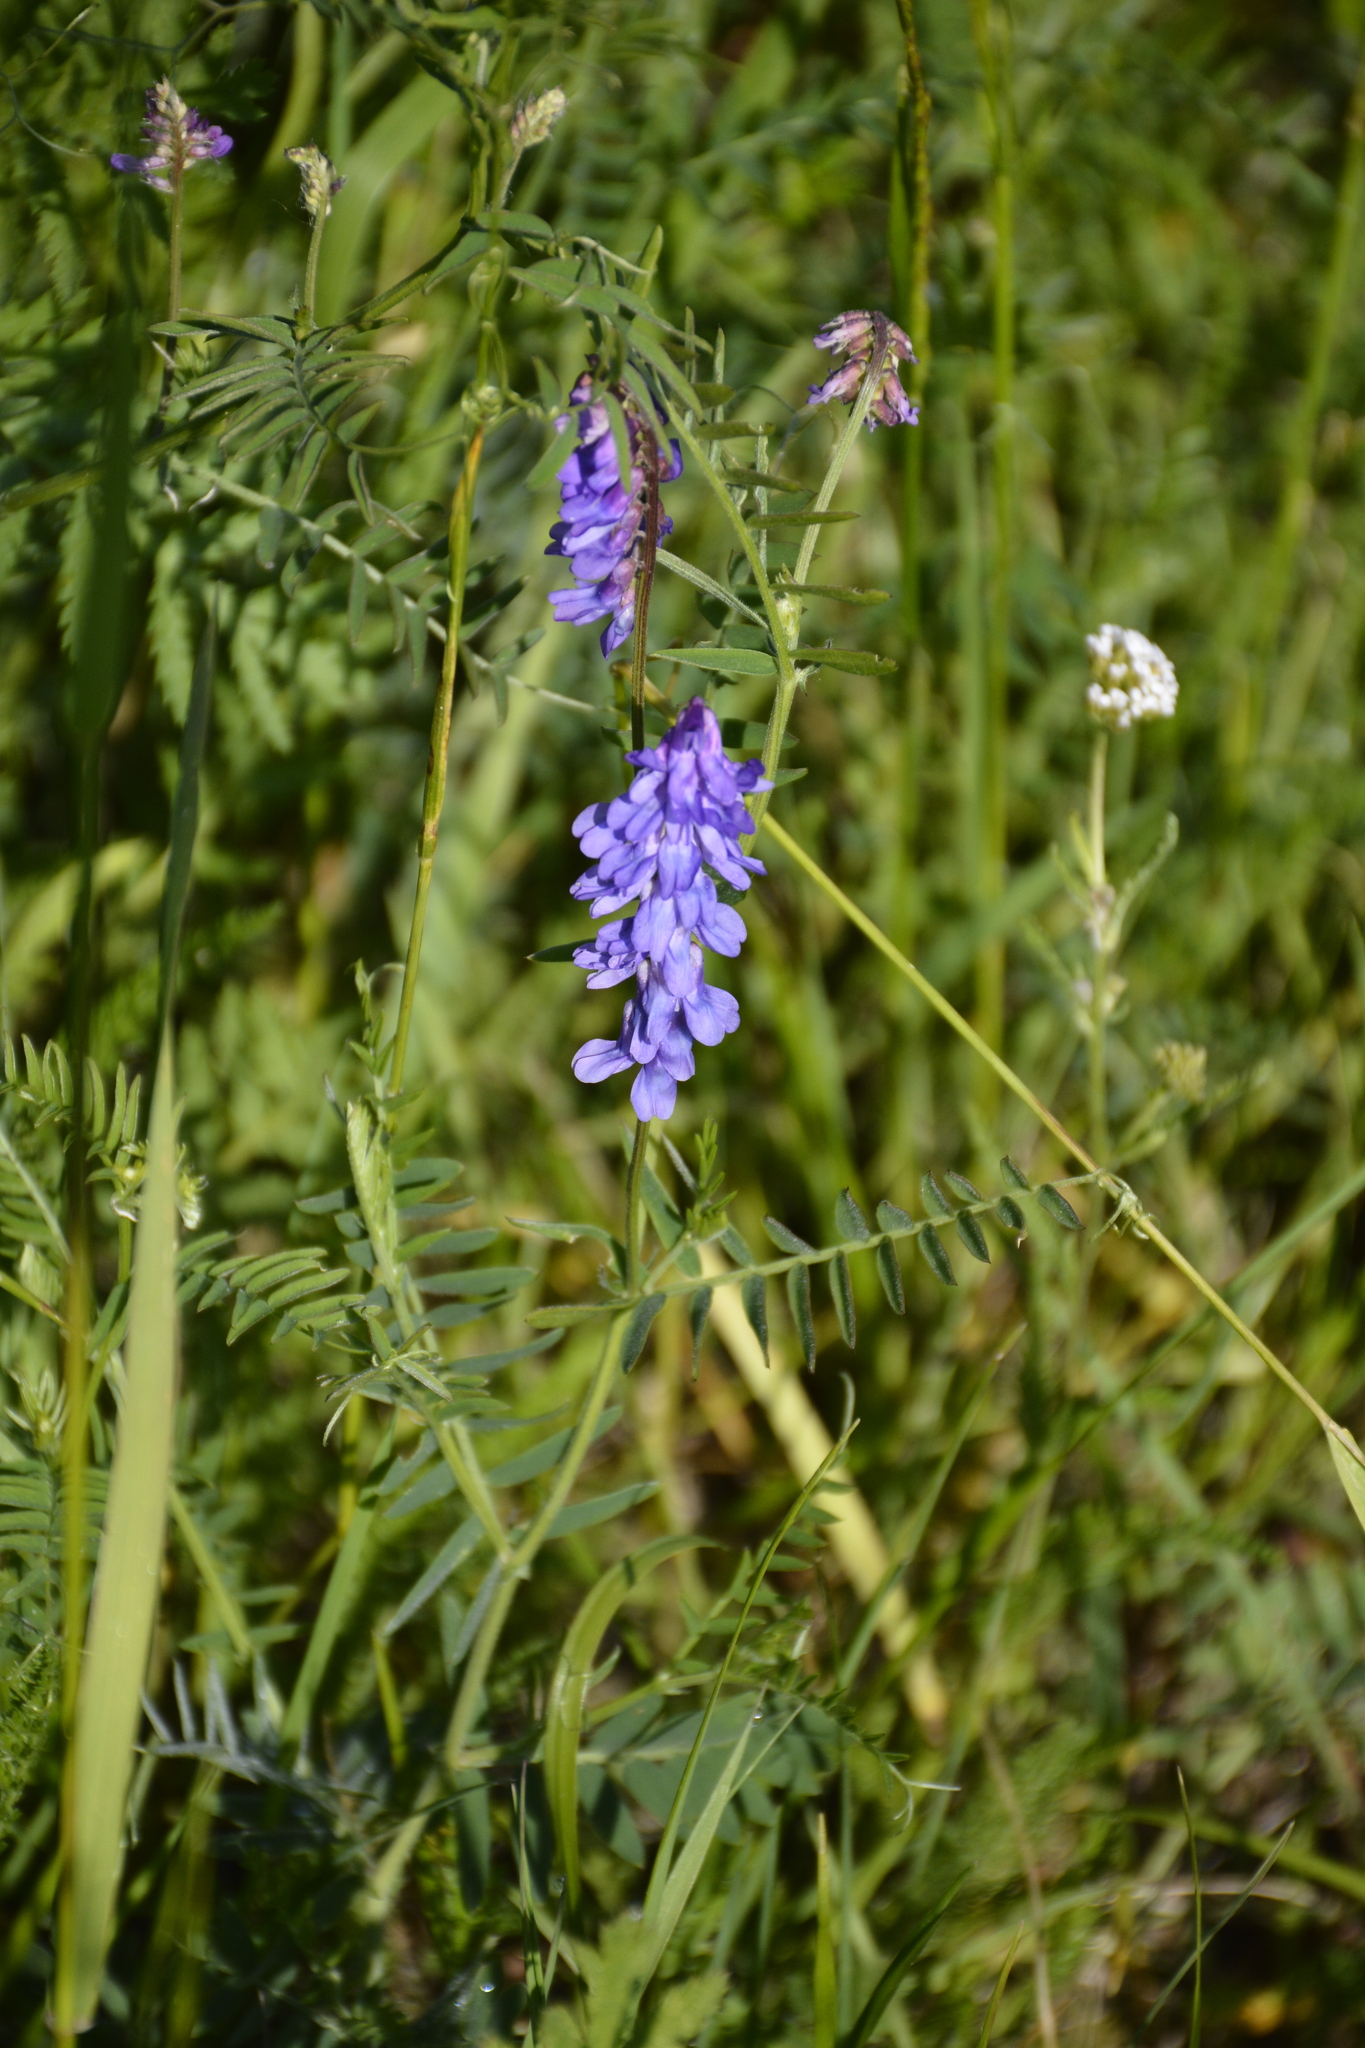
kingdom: Plantae
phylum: Tracheophyta
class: Magnoliopsida
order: Fabales
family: Fabaceae
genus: Vicia
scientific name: Vicia cracca
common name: Bird vetch
